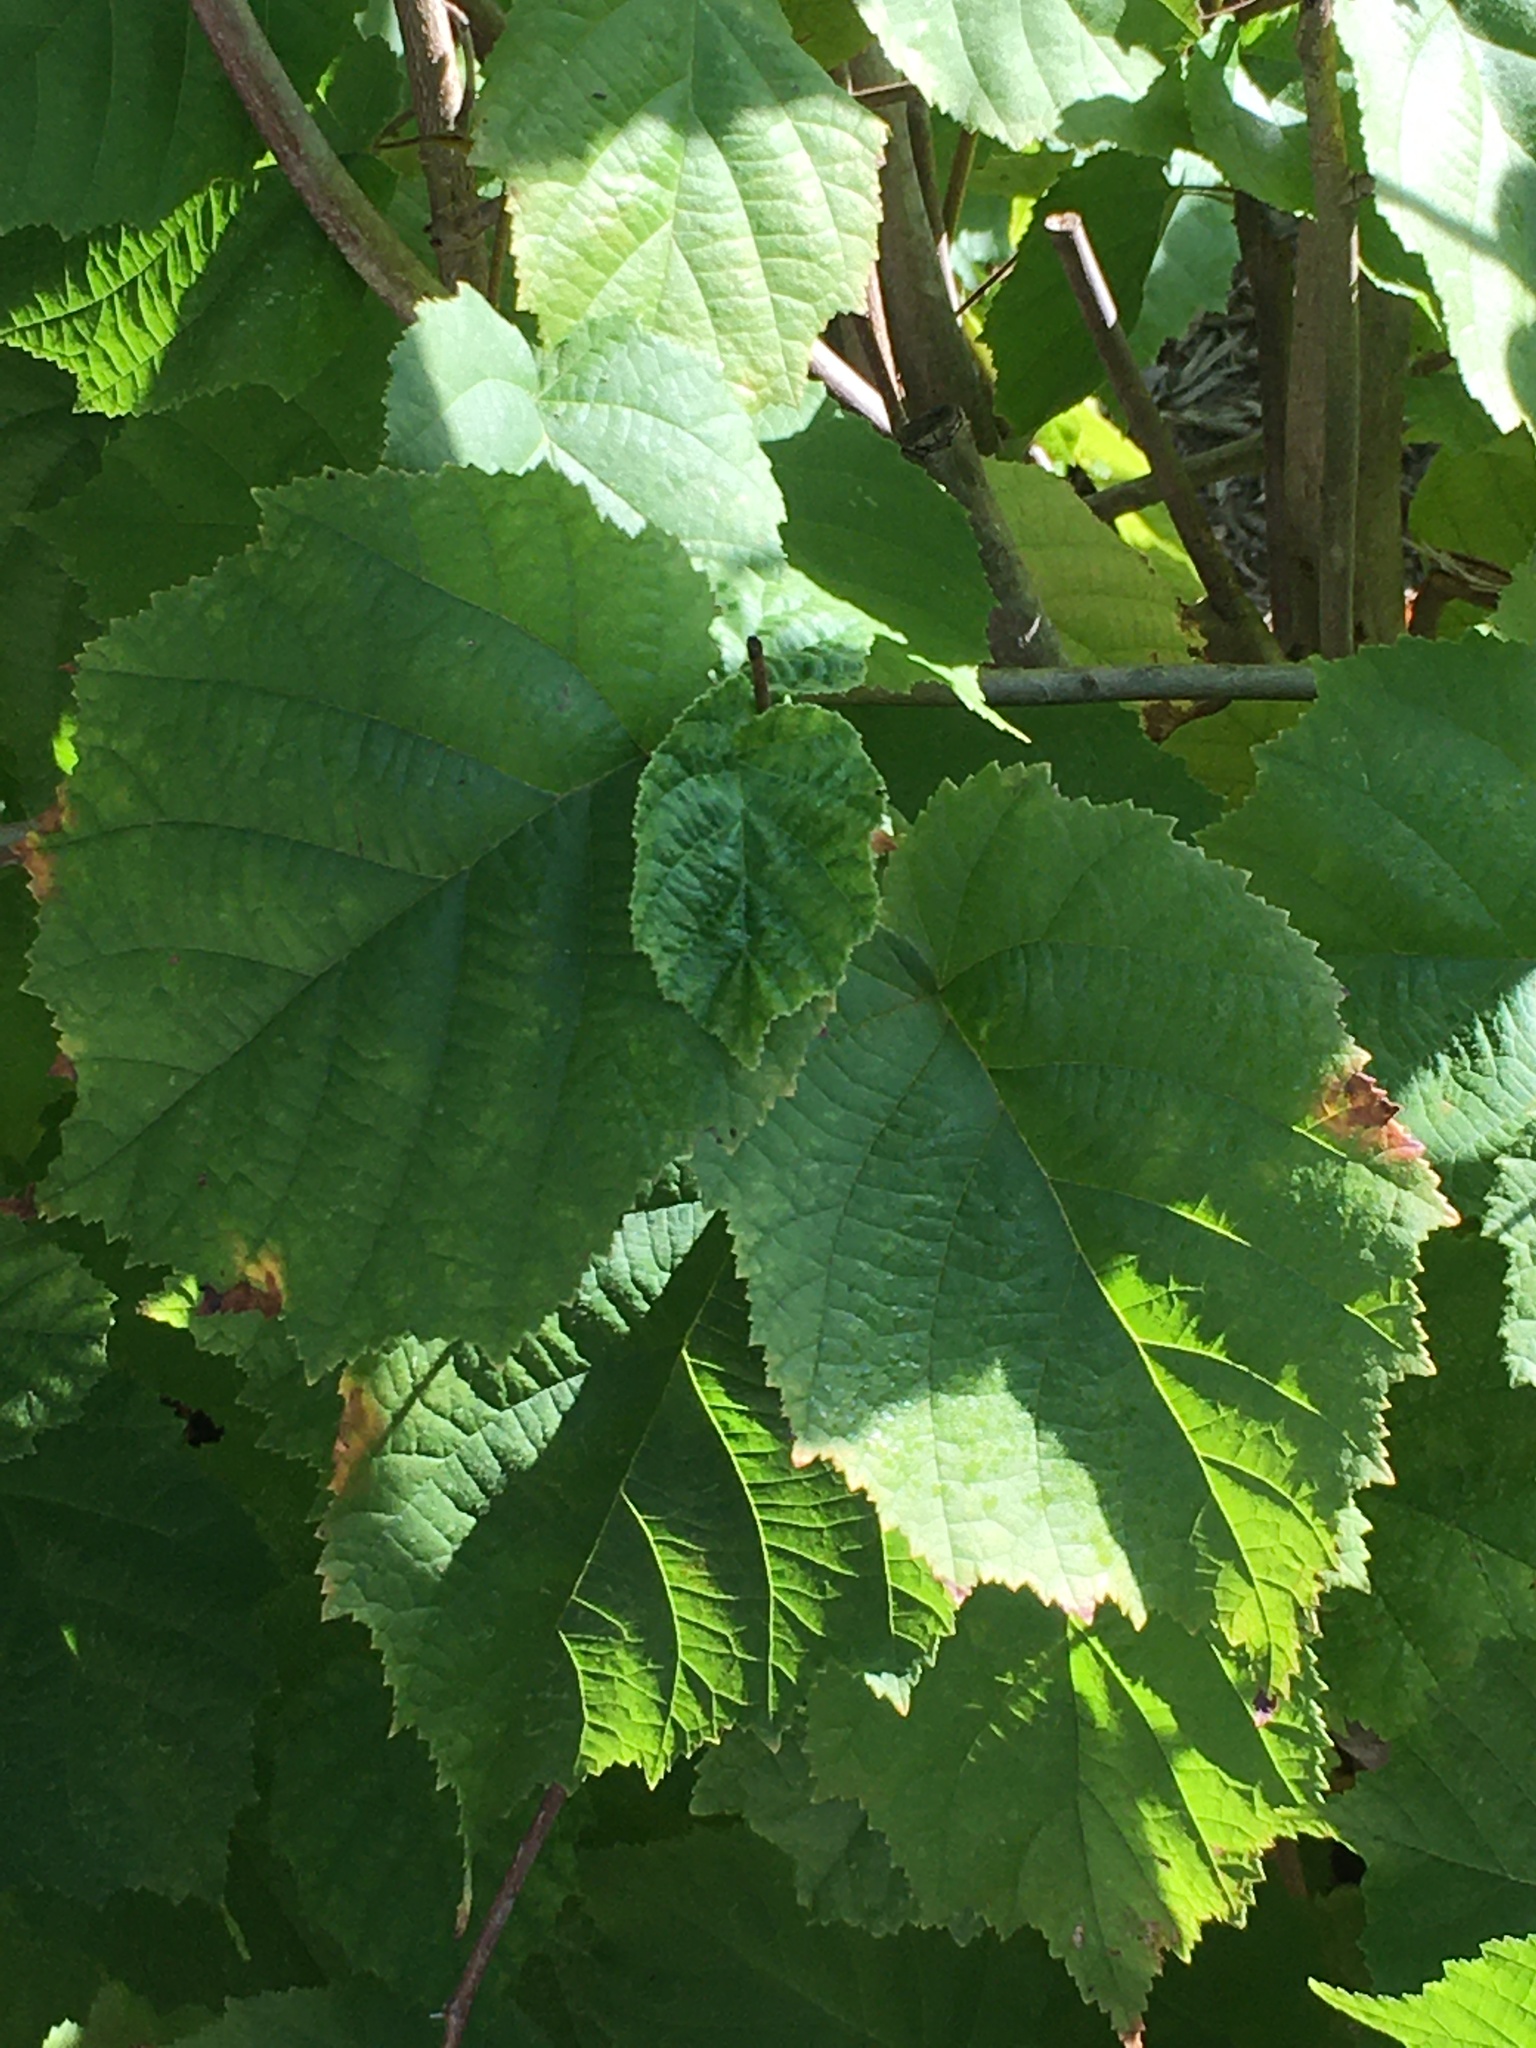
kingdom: Plantae
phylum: Tracheophyta
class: Magnoliopsida
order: Fagales
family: Betulaceae
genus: Corylus
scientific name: Corylus americana
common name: American hazel
